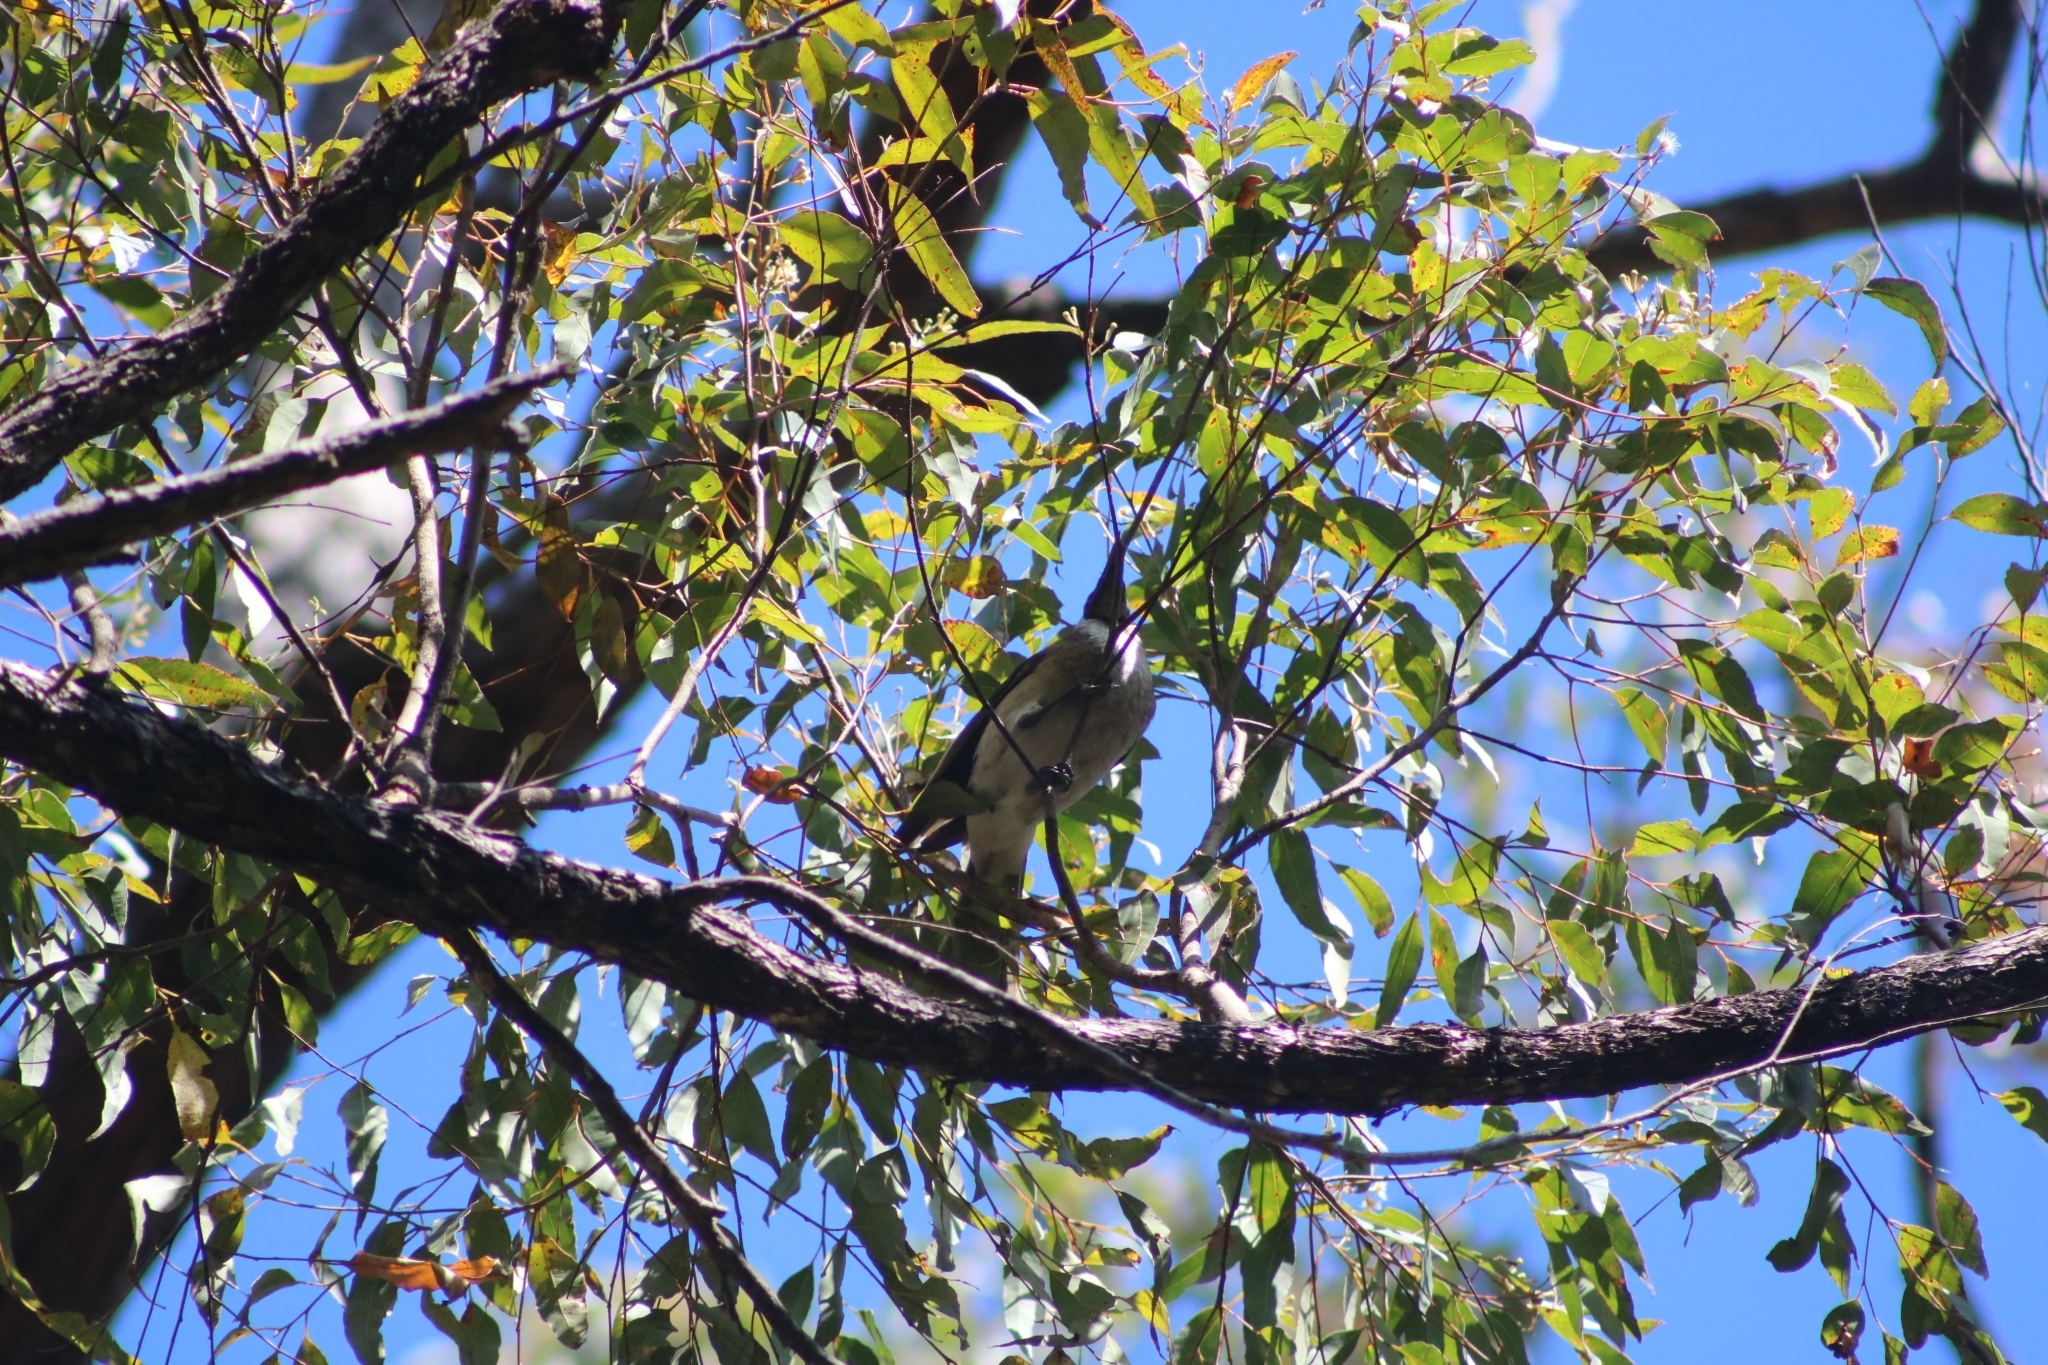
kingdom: Animalia
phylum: Chordata
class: Aves
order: Passeriformes
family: Meliphagidae
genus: Philemon
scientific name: Philemon corniculatus
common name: Noisy friarbird
